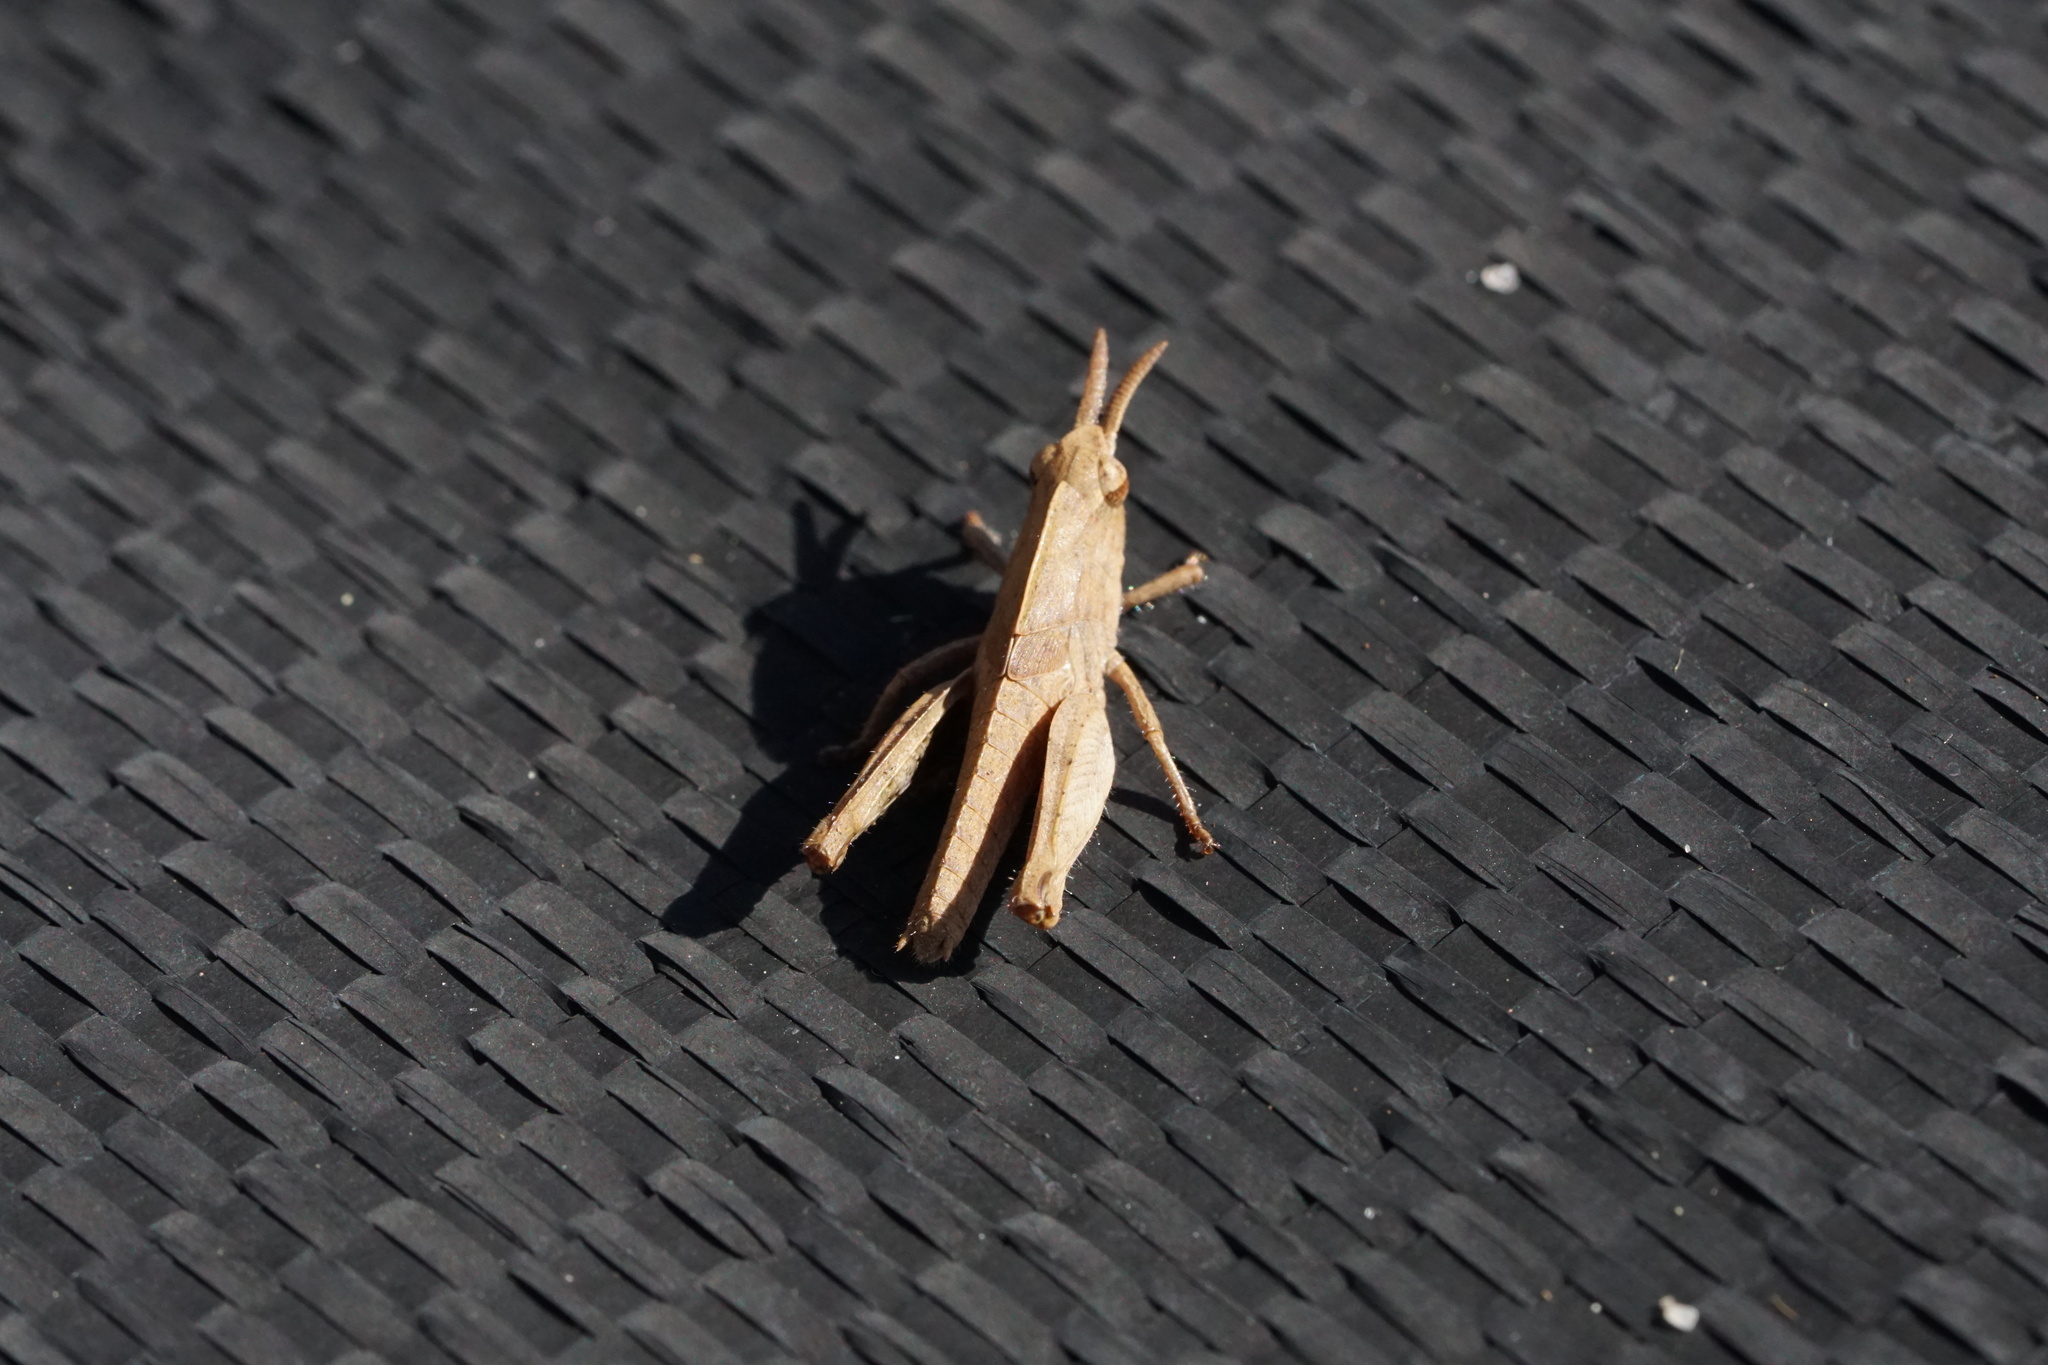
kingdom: Animalia
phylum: Arthropoda
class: Insecta
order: Orthoptera
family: Acrididae
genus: Chortophaga
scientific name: Chortophaga viridifasciata
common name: Green-striped grasshopper
